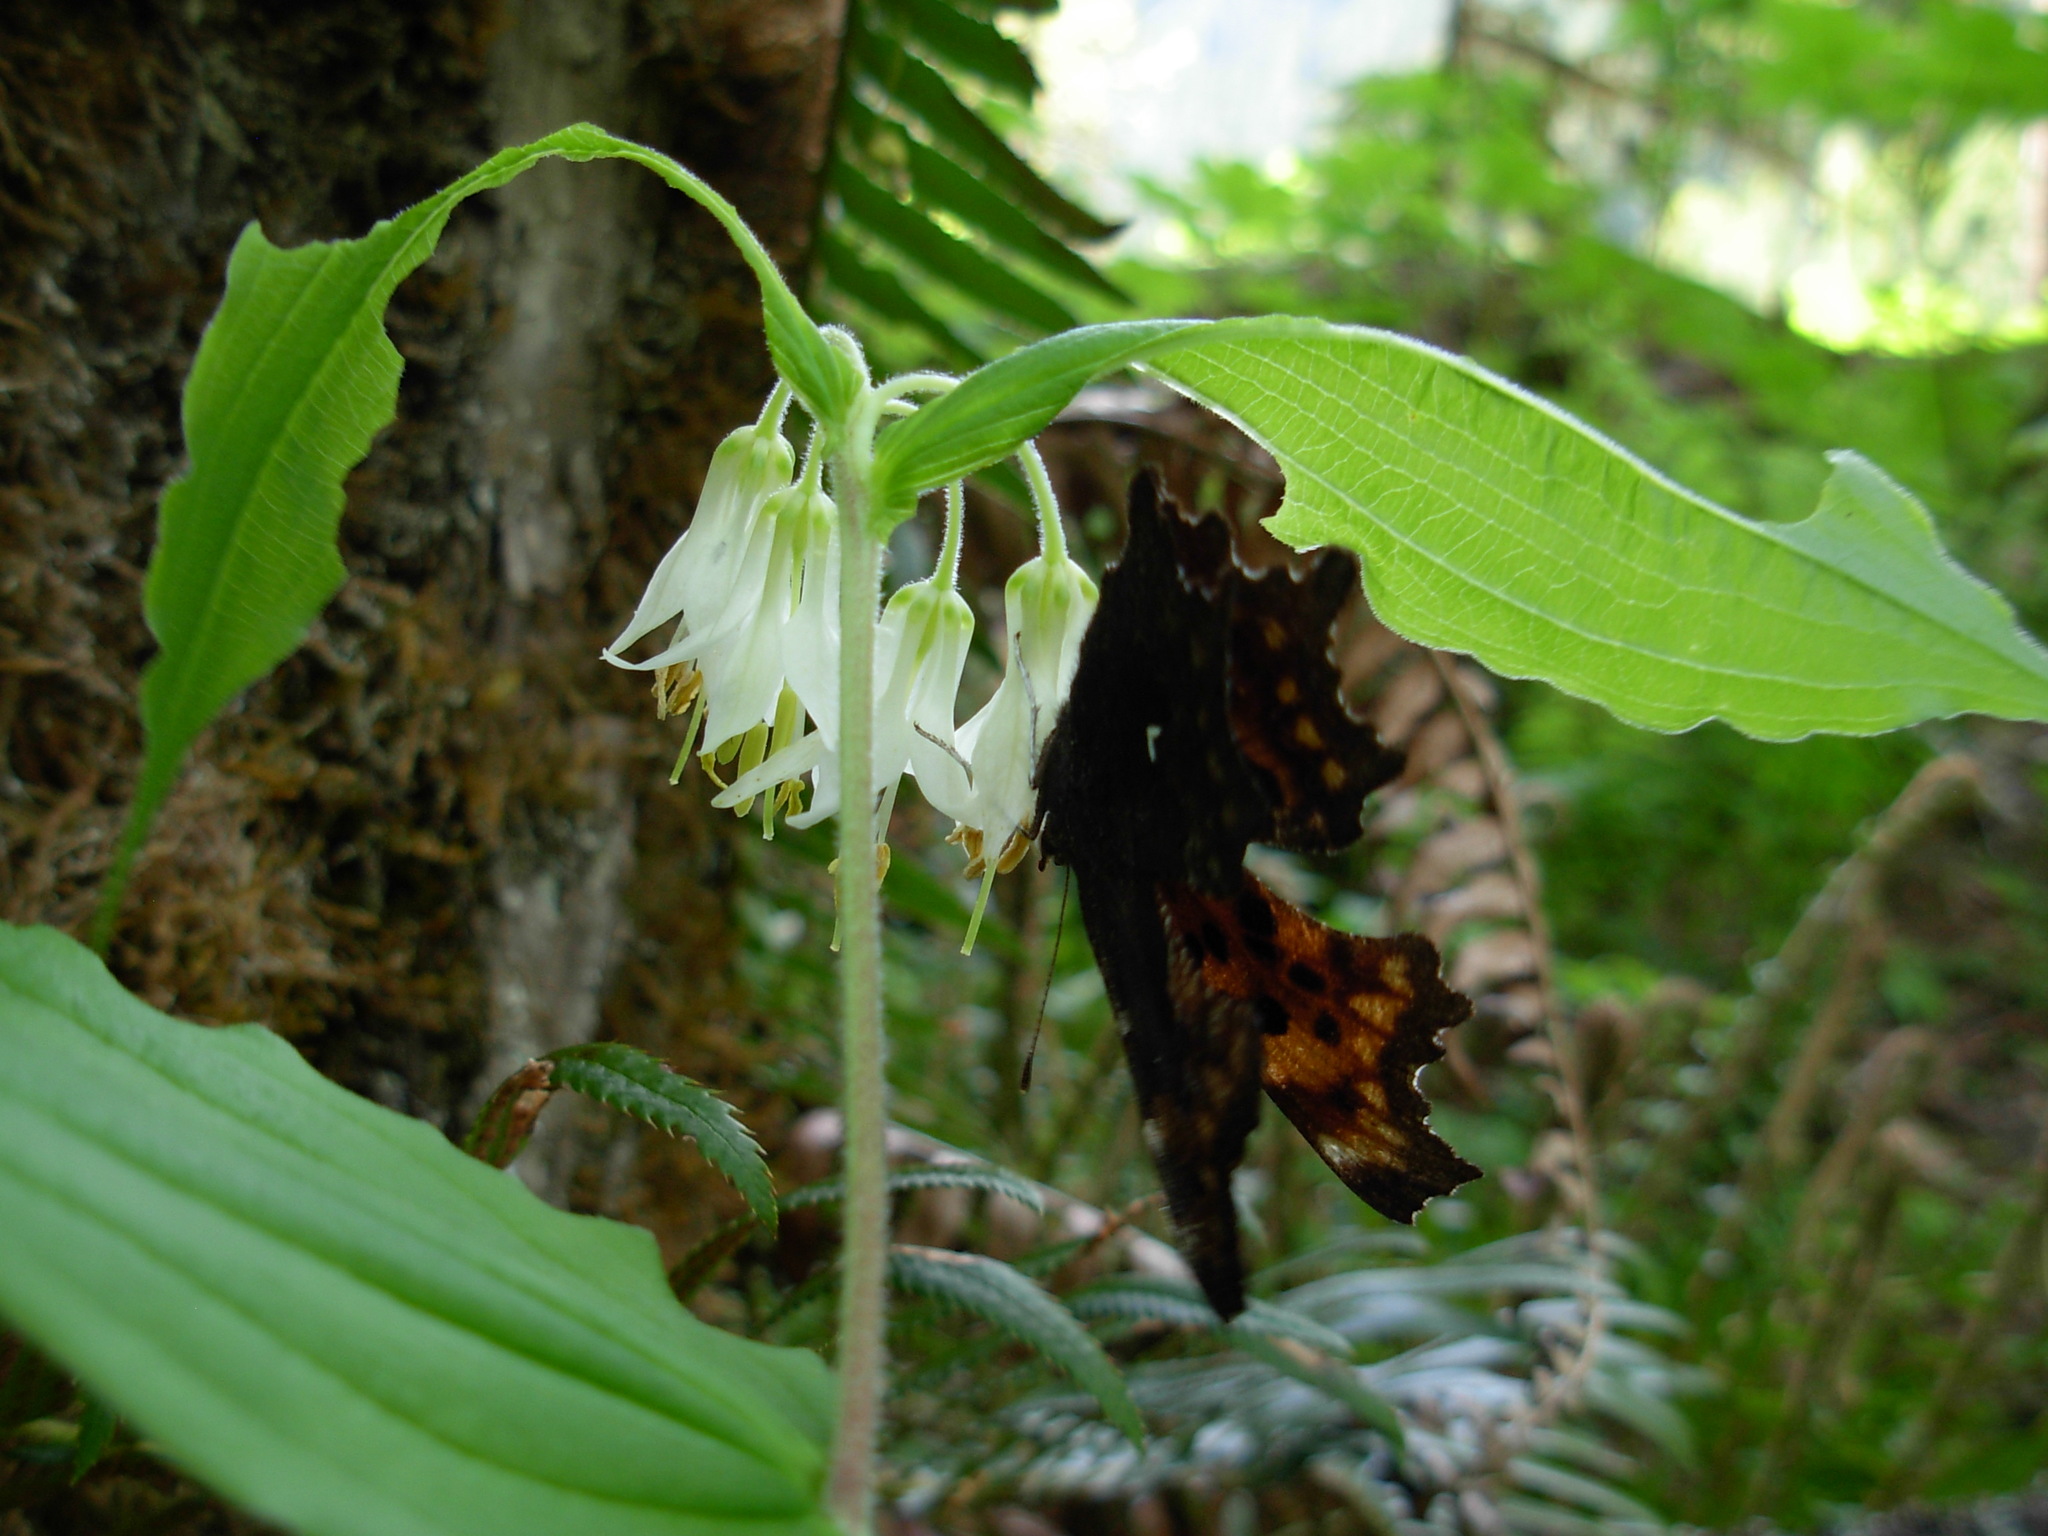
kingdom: Plantae
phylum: Tracheophyta
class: Liliopsida
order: Liliales
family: Liliaceae
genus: Prosartes
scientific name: Prosartes hookeri
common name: Fairy-bells
